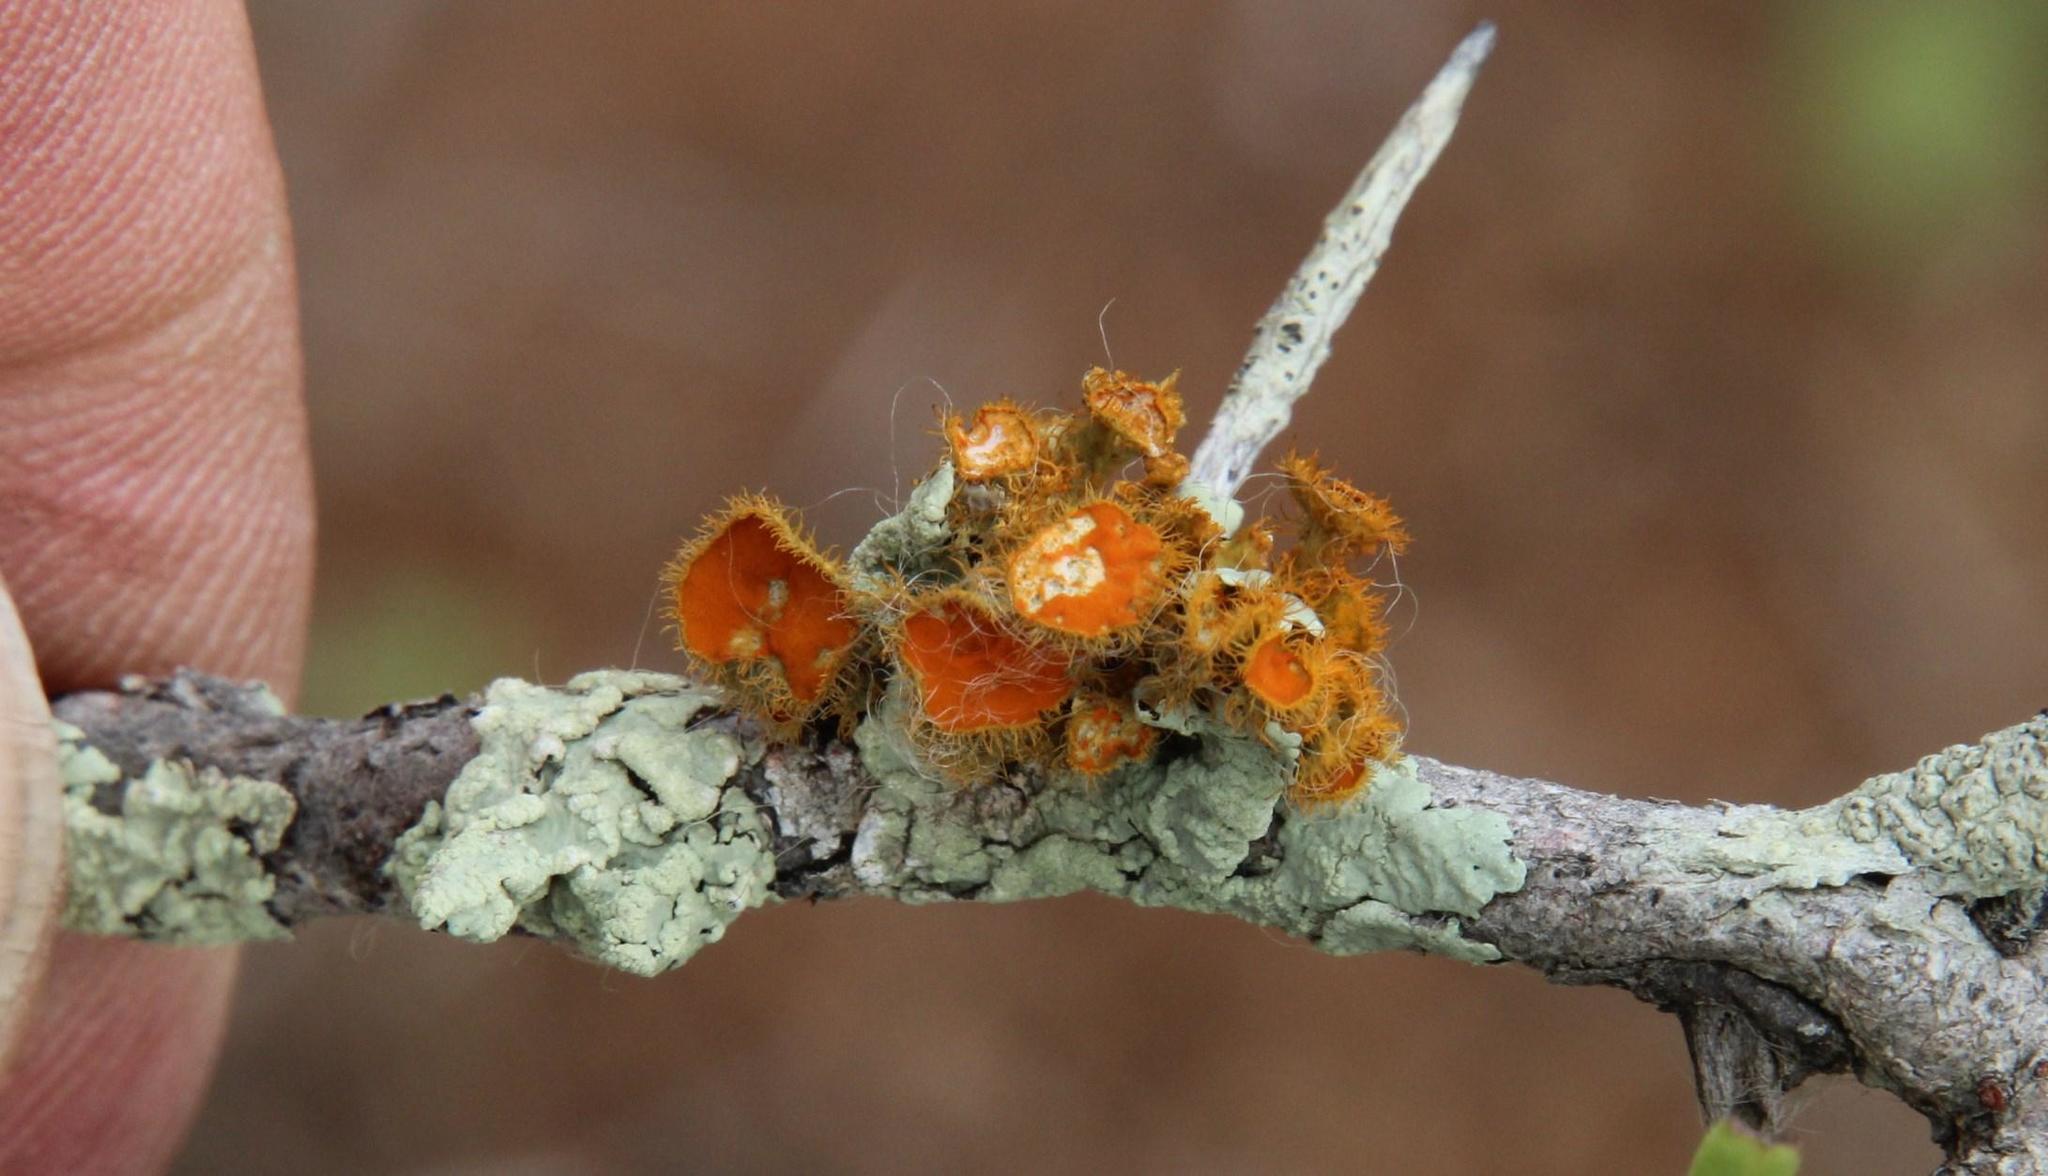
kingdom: Fungi
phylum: Ascomycota
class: Lecanoromycetes
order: Teloschistales
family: Teloschistaceae
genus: Niorma
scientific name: Niorma chrysophthalma
